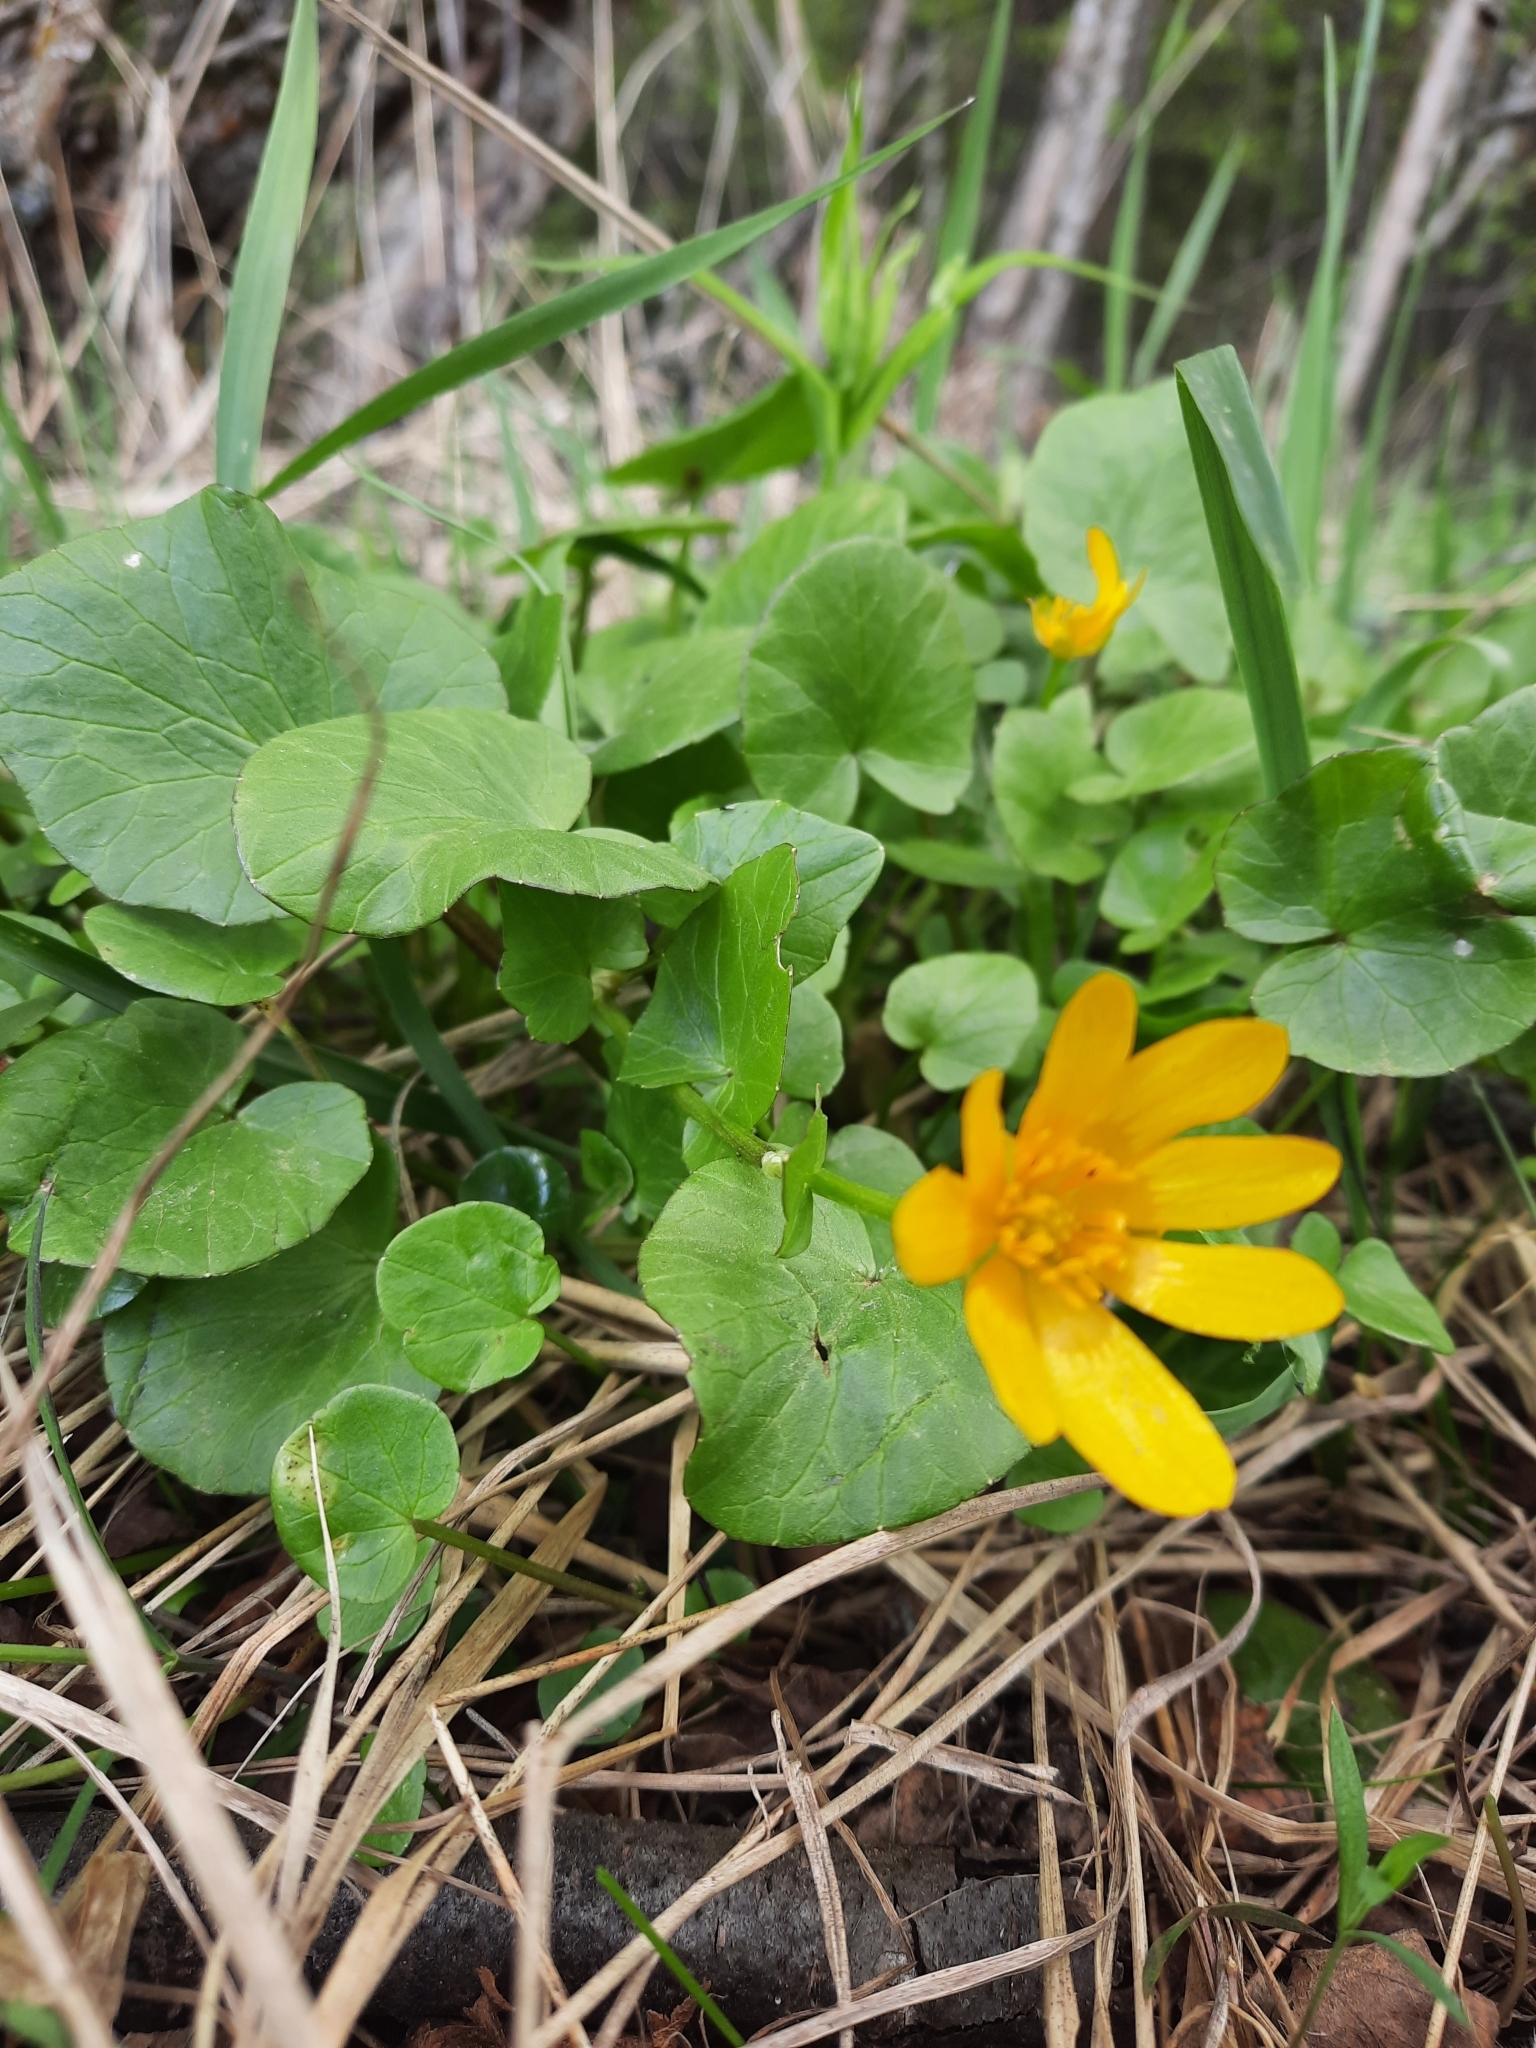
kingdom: Plantae
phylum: Tracheophyta
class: Magnoliopsida
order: Ranunculales
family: Ranunculaceae
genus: Ficaria
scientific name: Ficaria verna
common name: Lesser celandine
